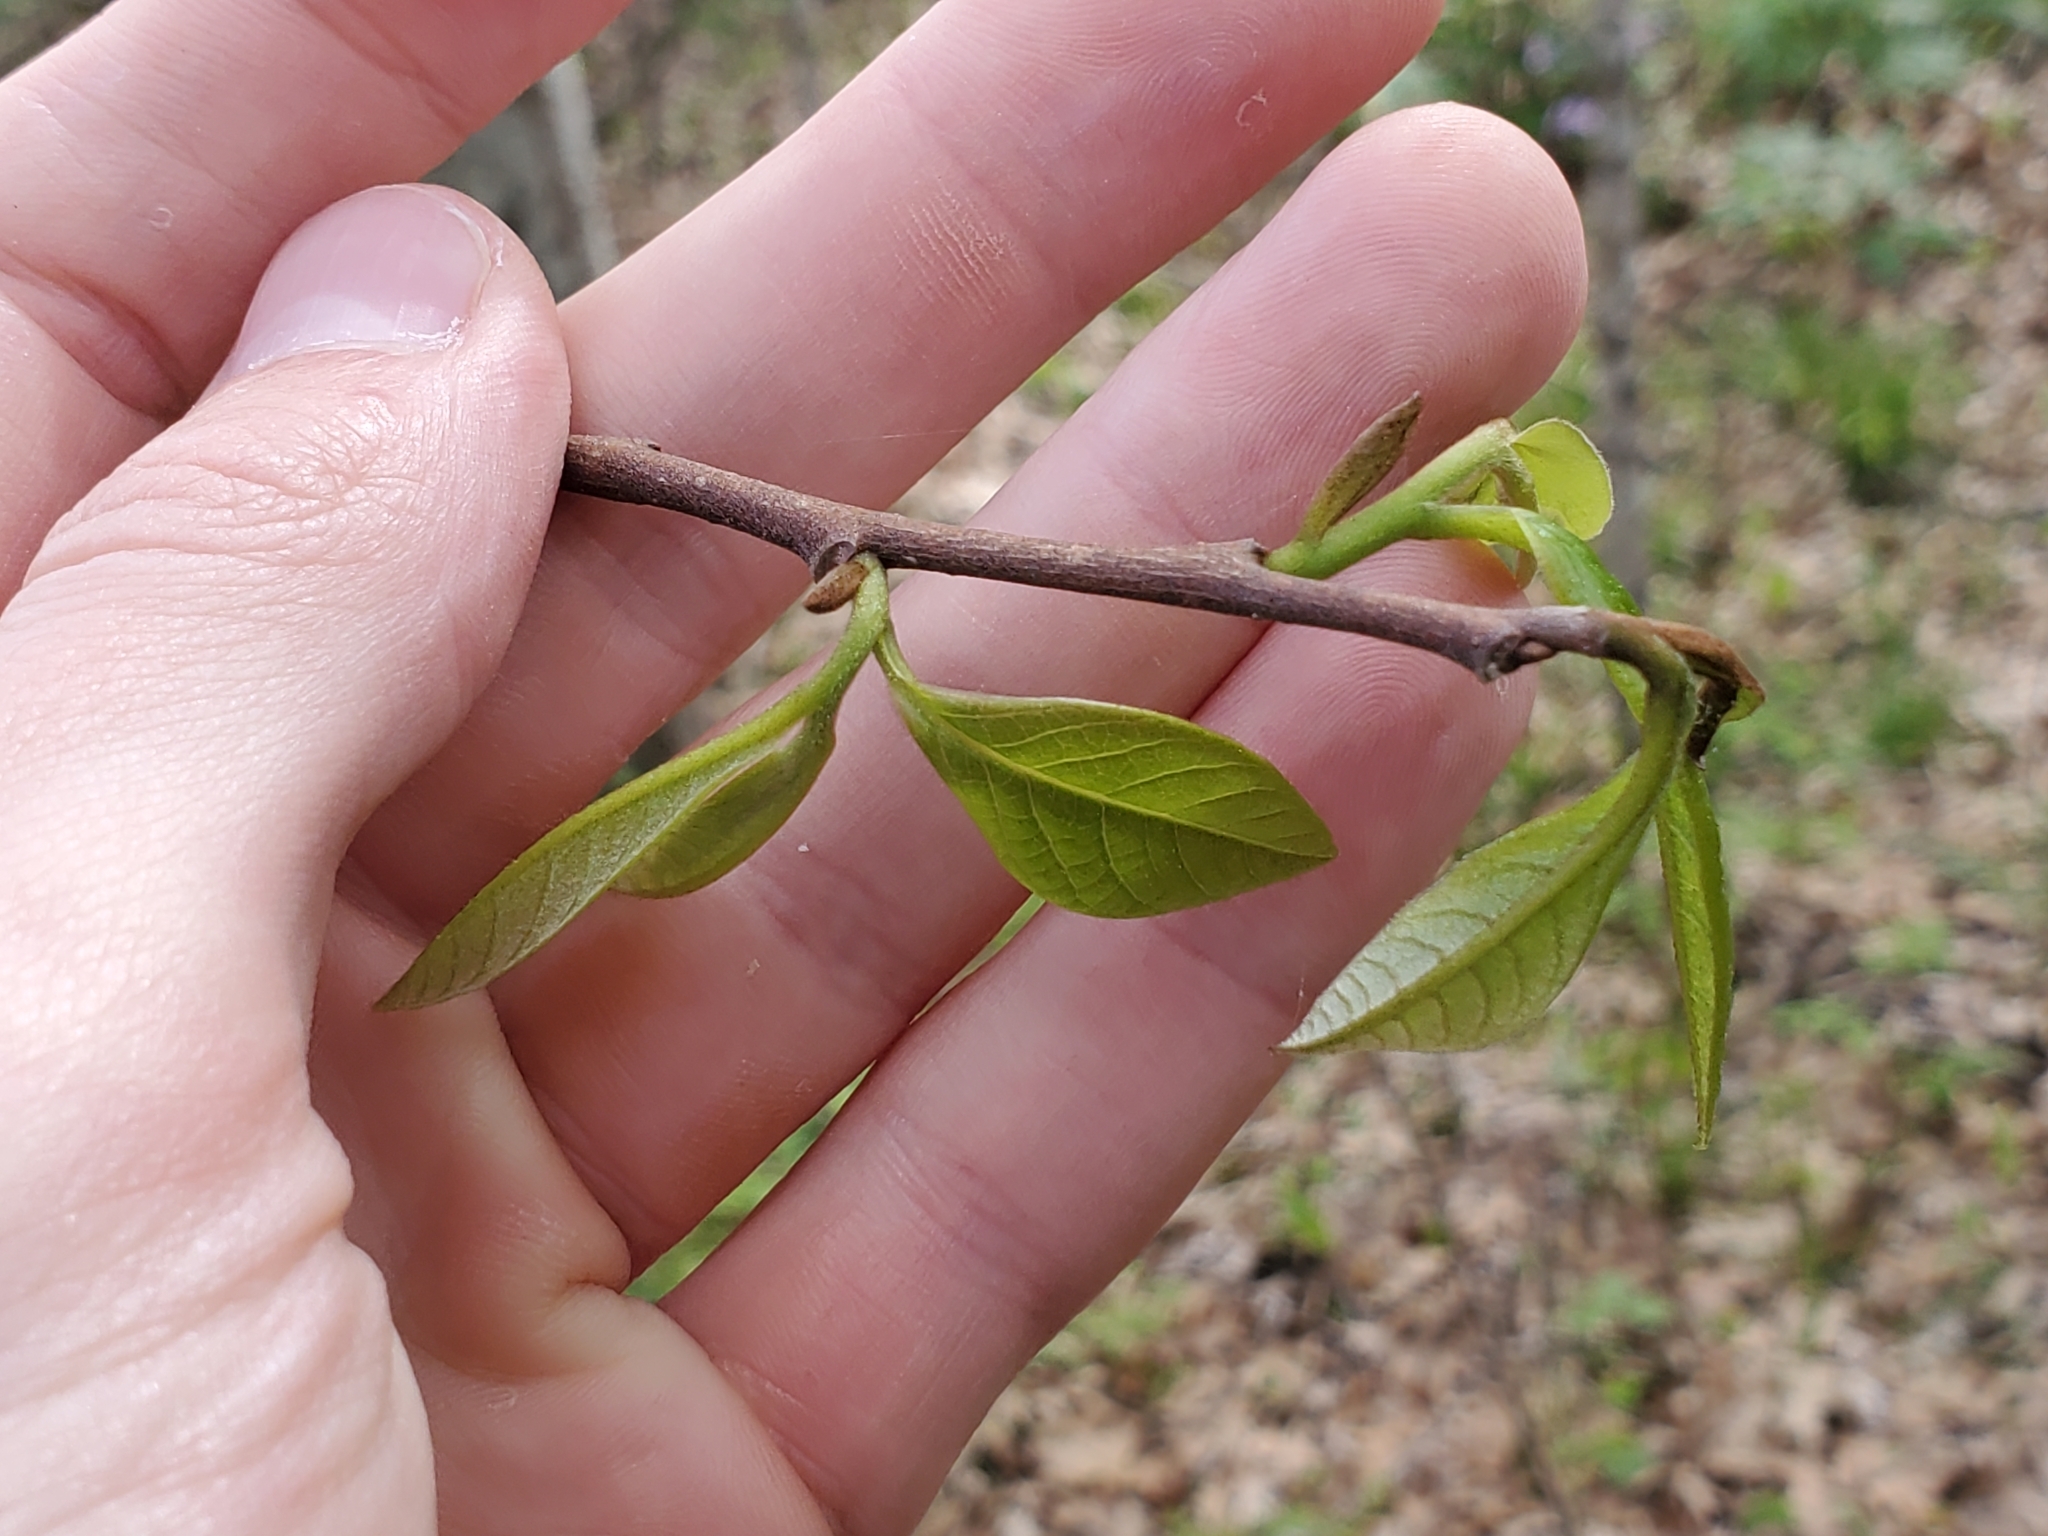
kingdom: Plantae
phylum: Tracheophyta
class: Magnoliopsida
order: Magnoliales
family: Annonaceae
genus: Asimina
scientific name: Asimina triloba
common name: Dog-banana
